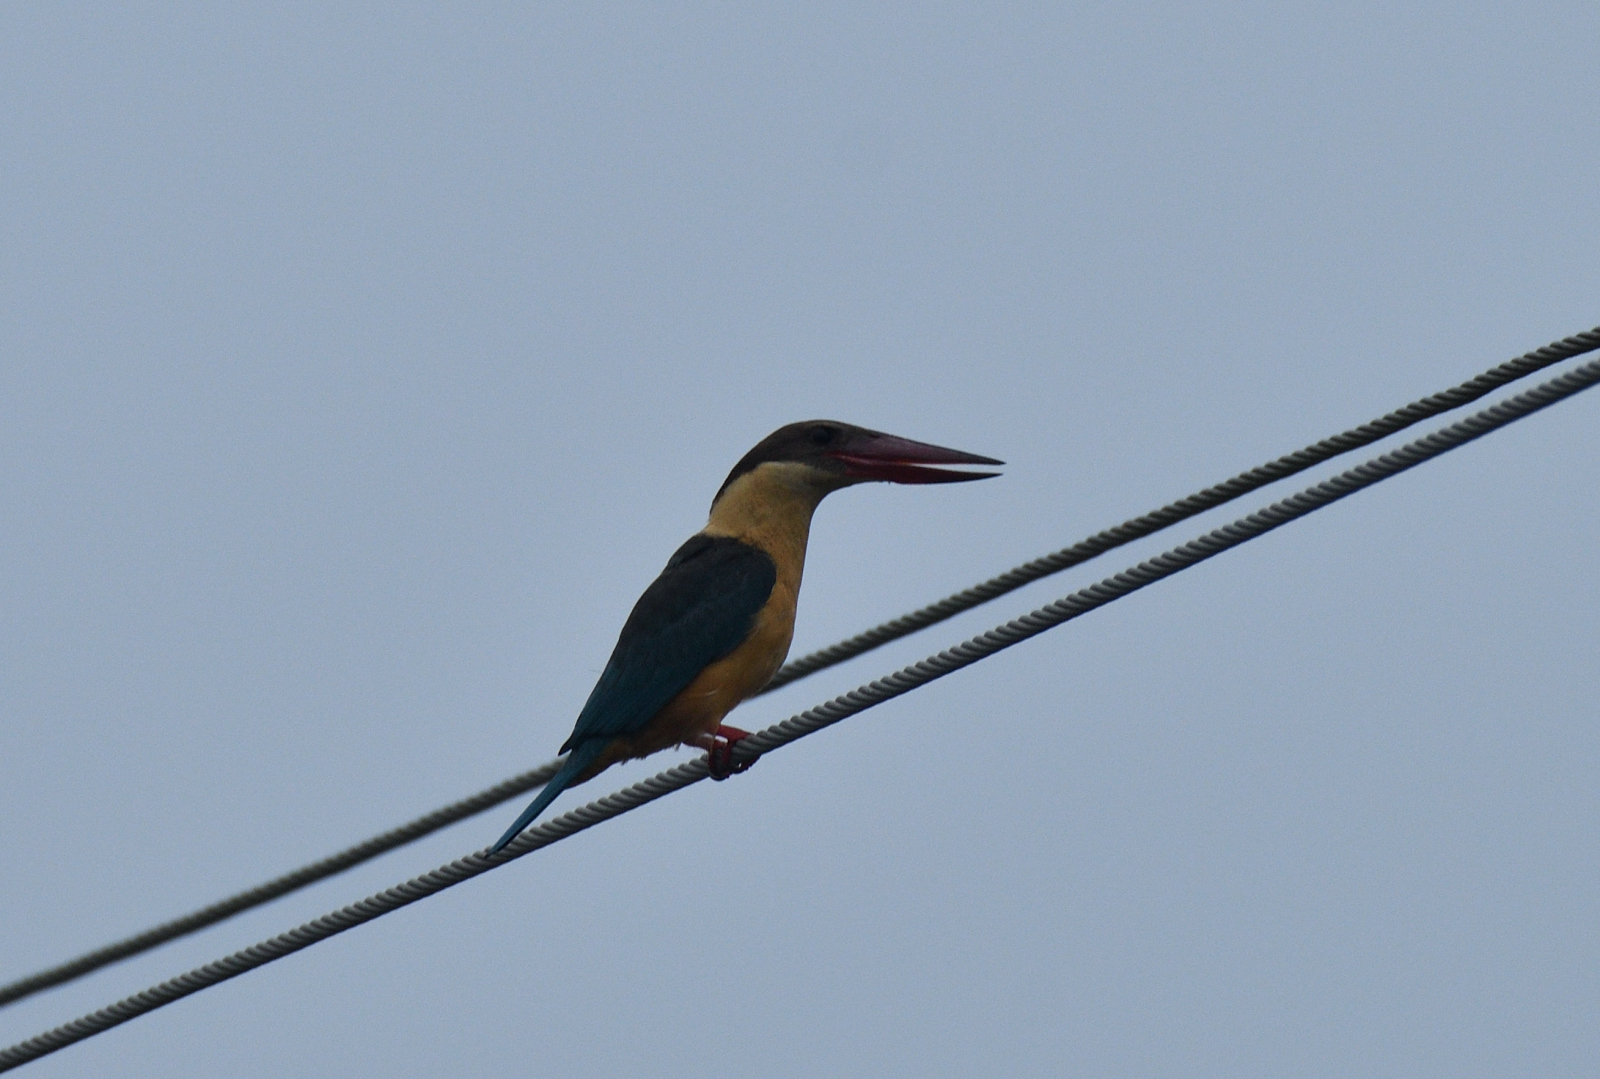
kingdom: Animalia
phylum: Chordata
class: Aves
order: Coraciiformes
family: Alcedinidae
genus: Pelargopsis
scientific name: Pelargopsis capensis
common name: Stork-billed kingfisher
